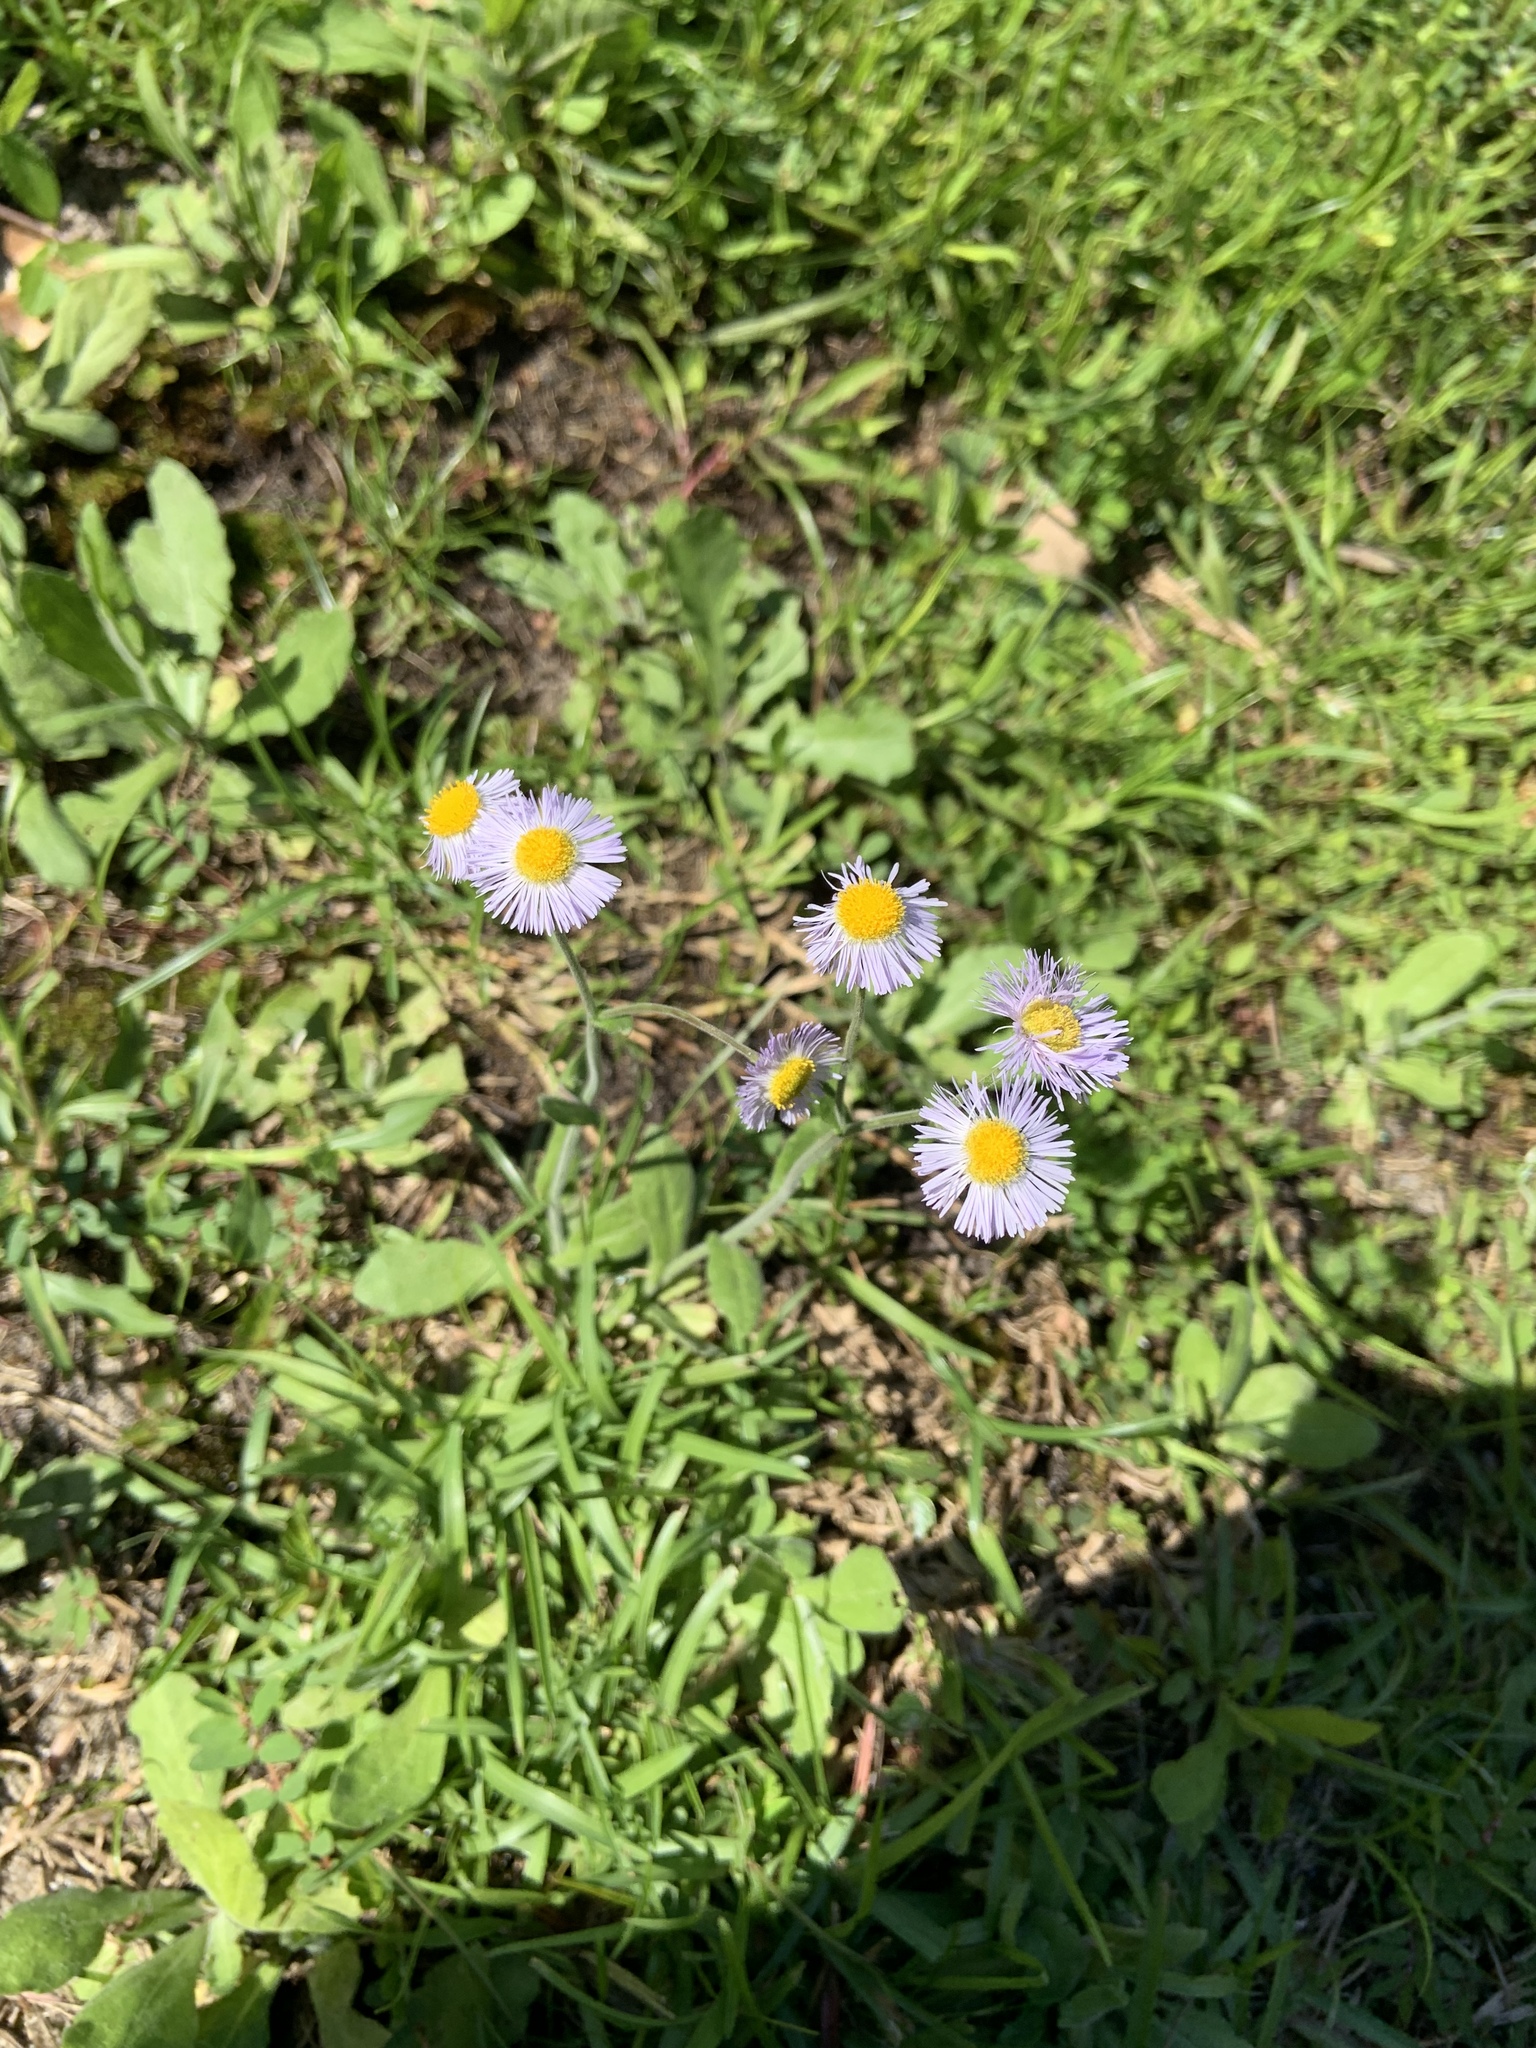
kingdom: Plantae
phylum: Tracheophyta
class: Magnoliopsida
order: Asterales
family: Asteraceae
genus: Erigeron
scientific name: Erigeron philadelphicus
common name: Robin's-plantain
